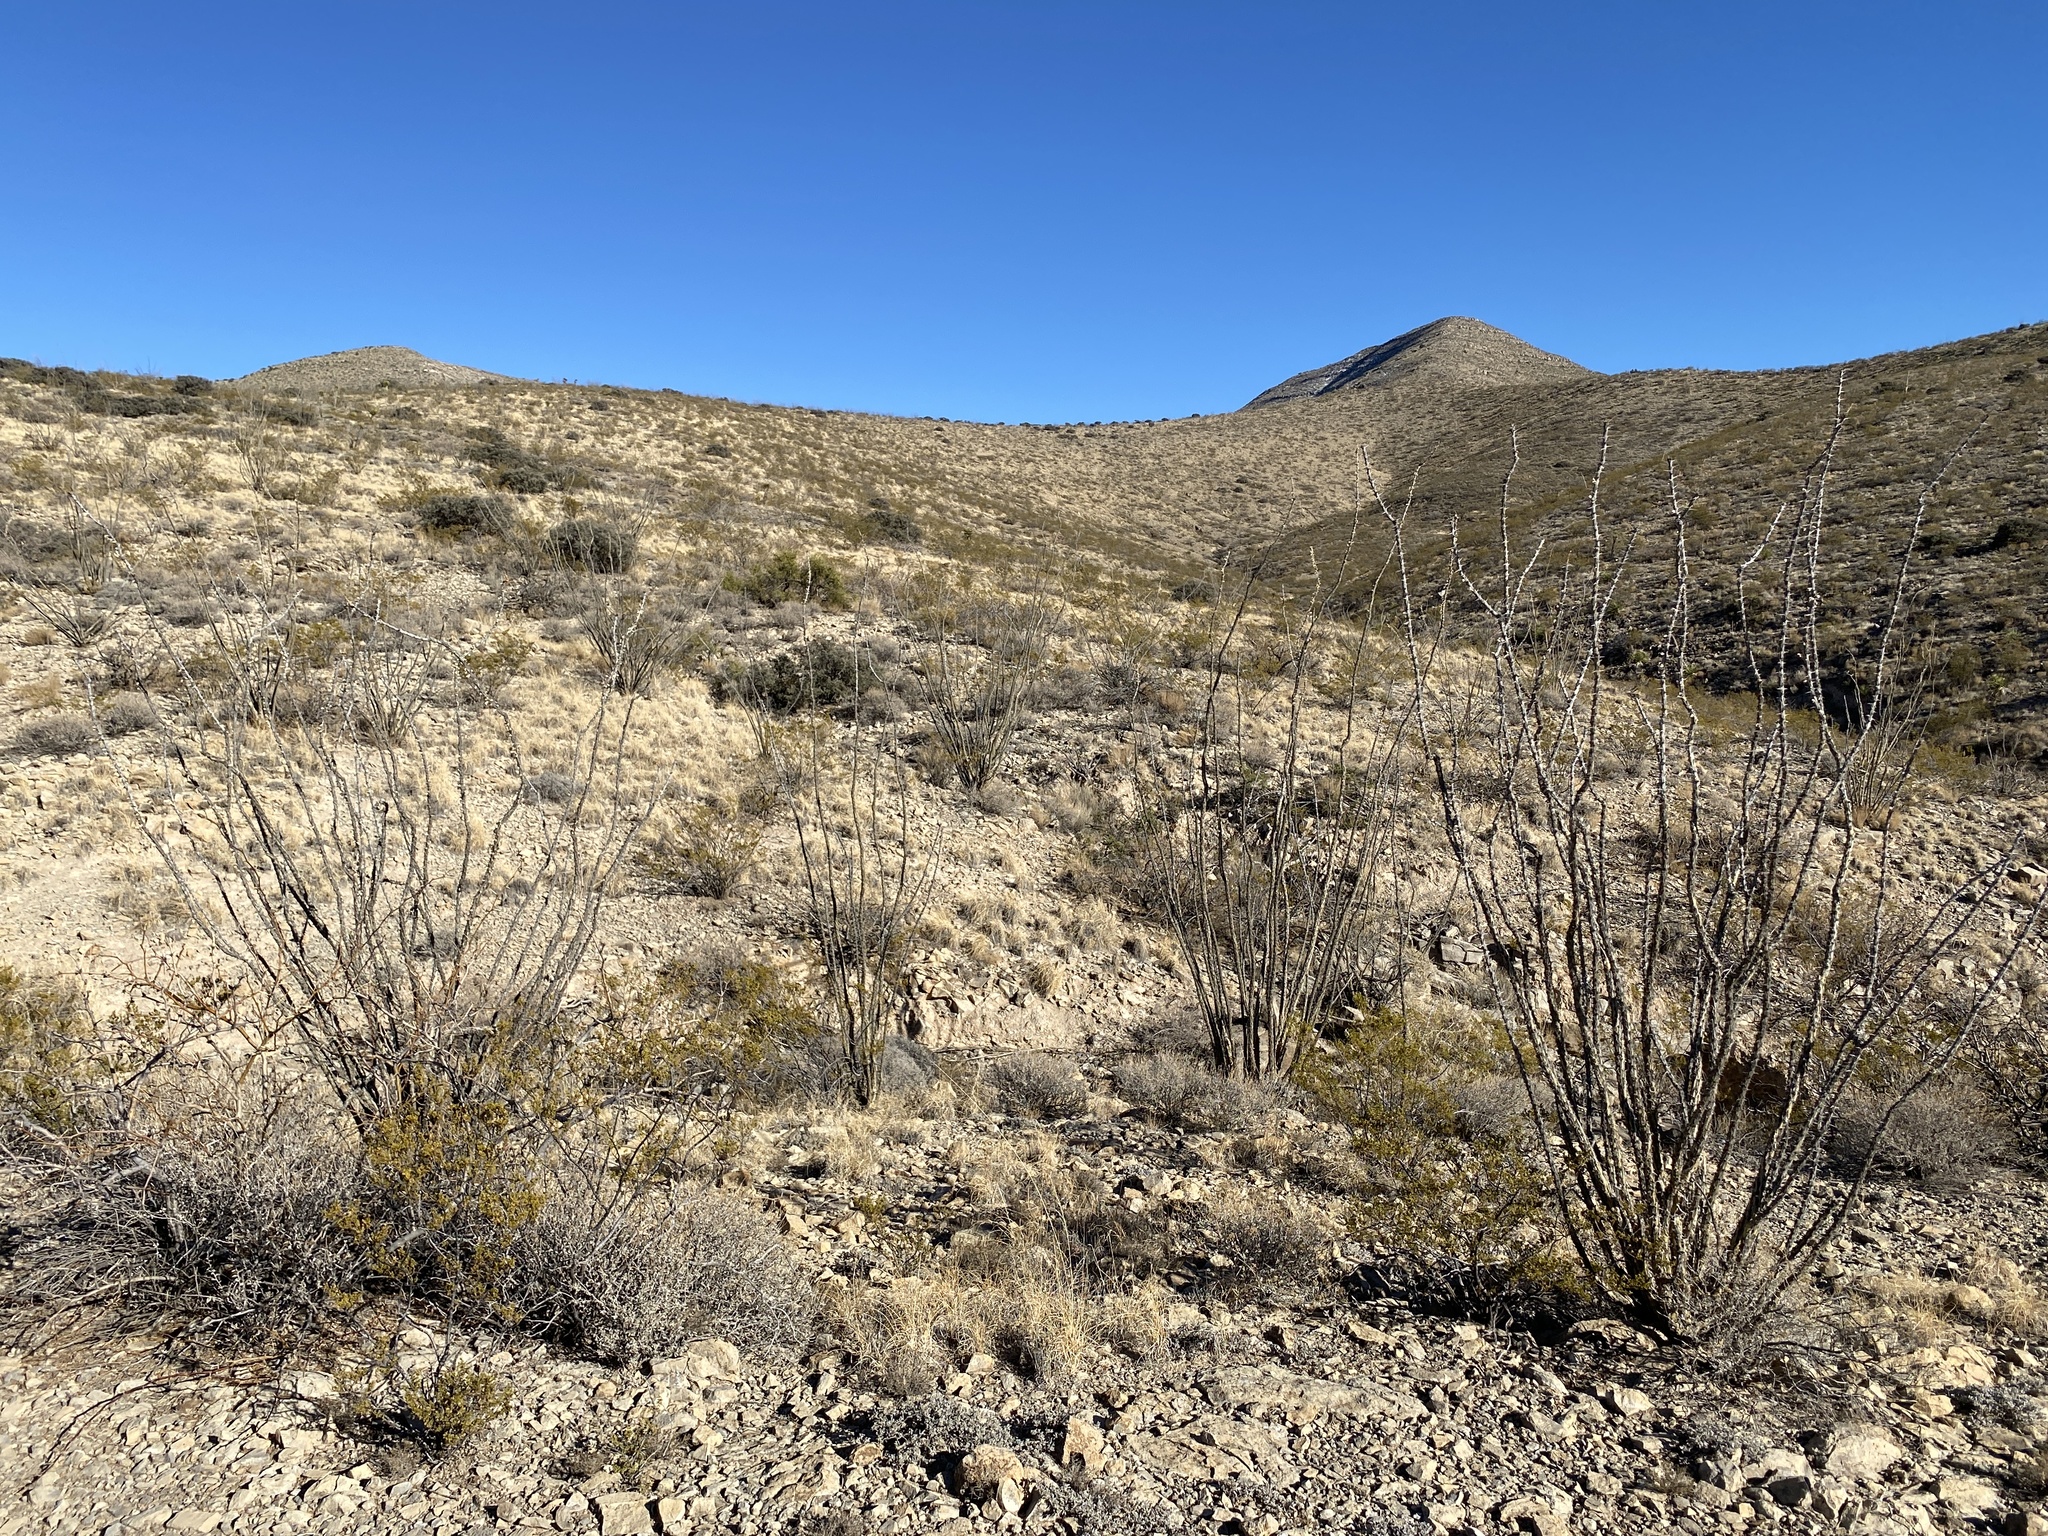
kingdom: Plantae
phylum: Tracheophyta
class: Magnoliopsida
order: Ericales
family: Fouquieriaceae
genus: Fouquieria
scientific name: Fouquieria splendens
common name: Vine-cactus
